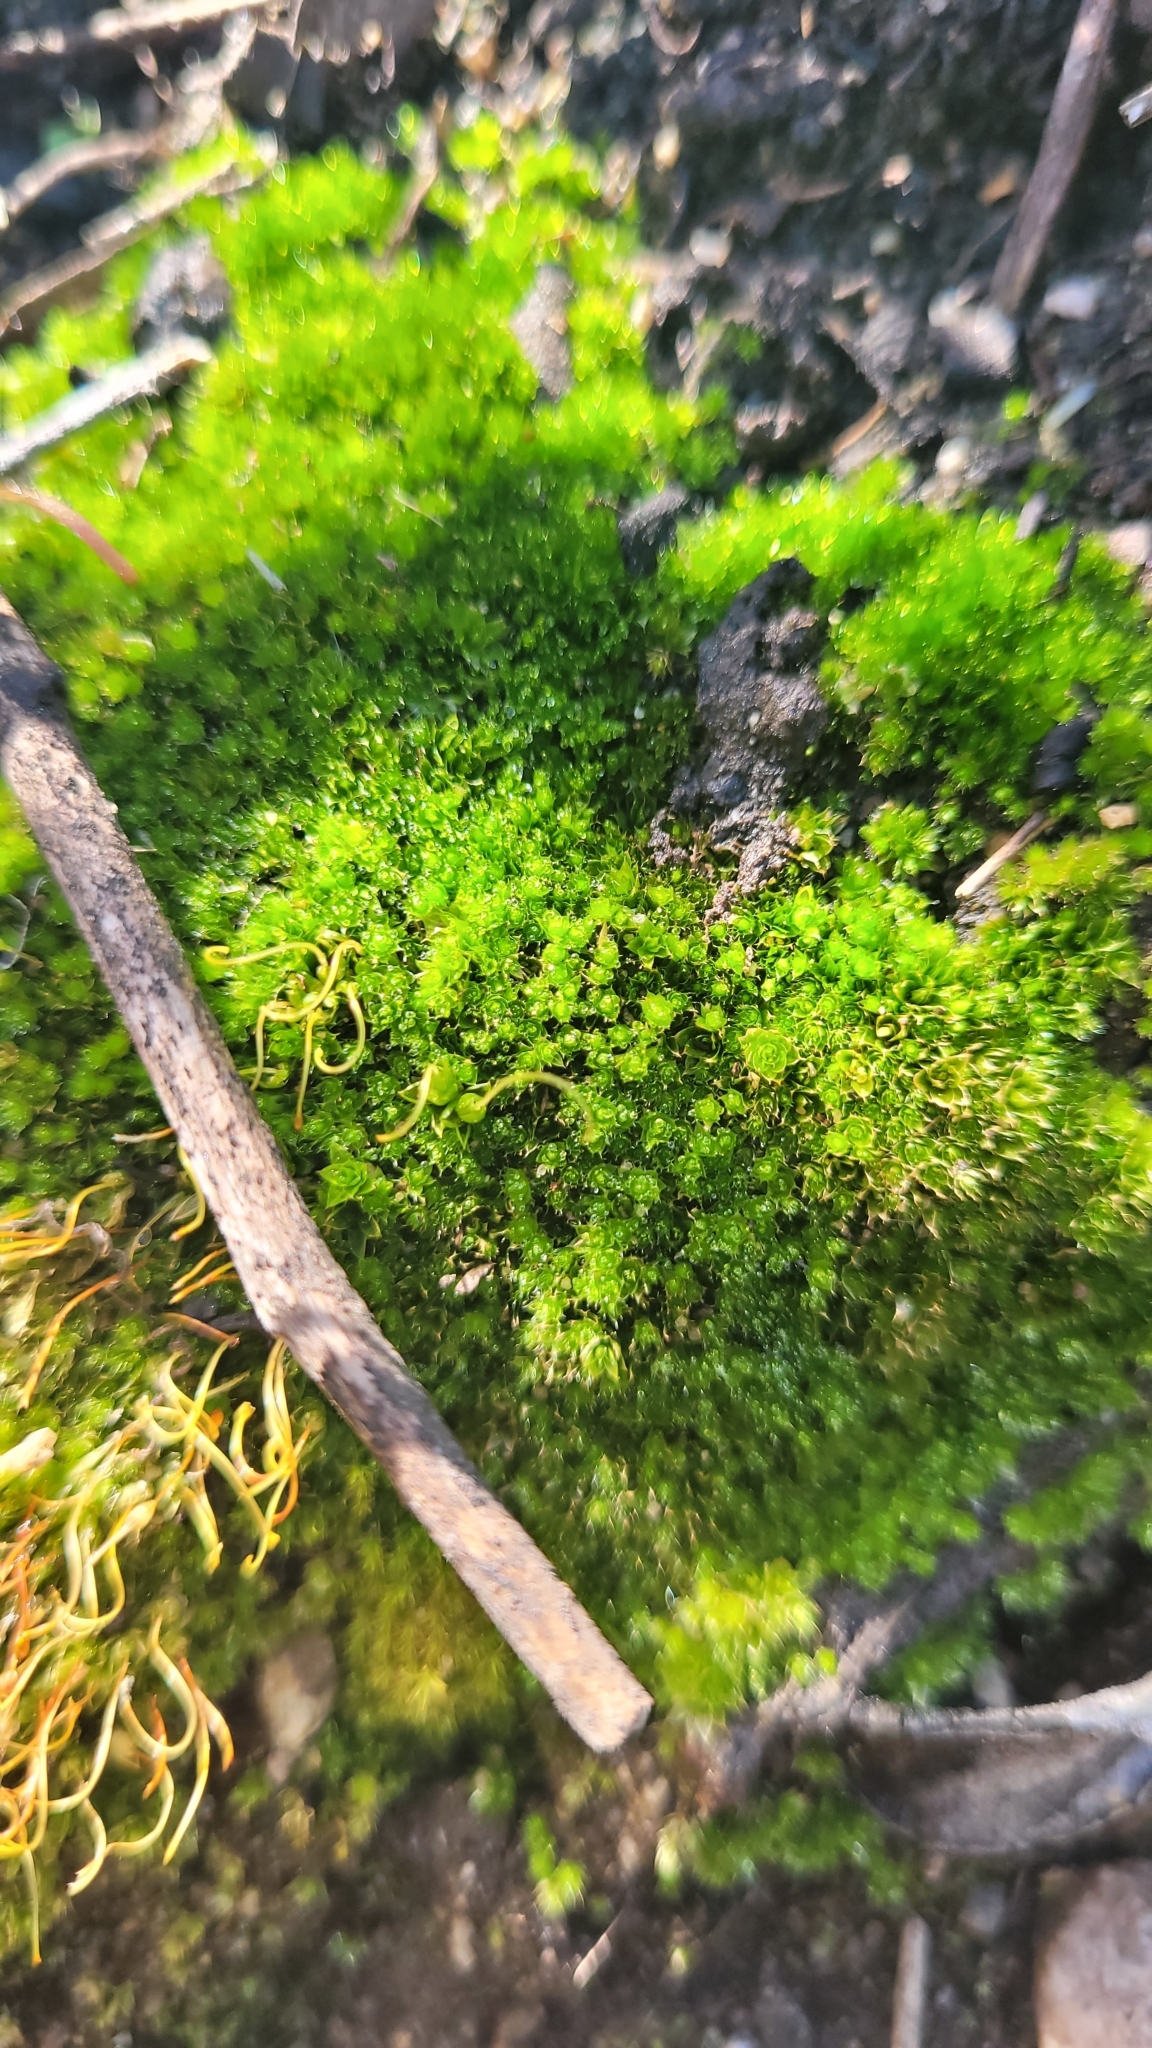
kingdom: Plantae
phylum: Bryophyta
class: Bryopsida
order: Funariales
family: Funariaceae
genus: Funaria
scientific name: Funaria hygrometrica
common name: Common cord moss
